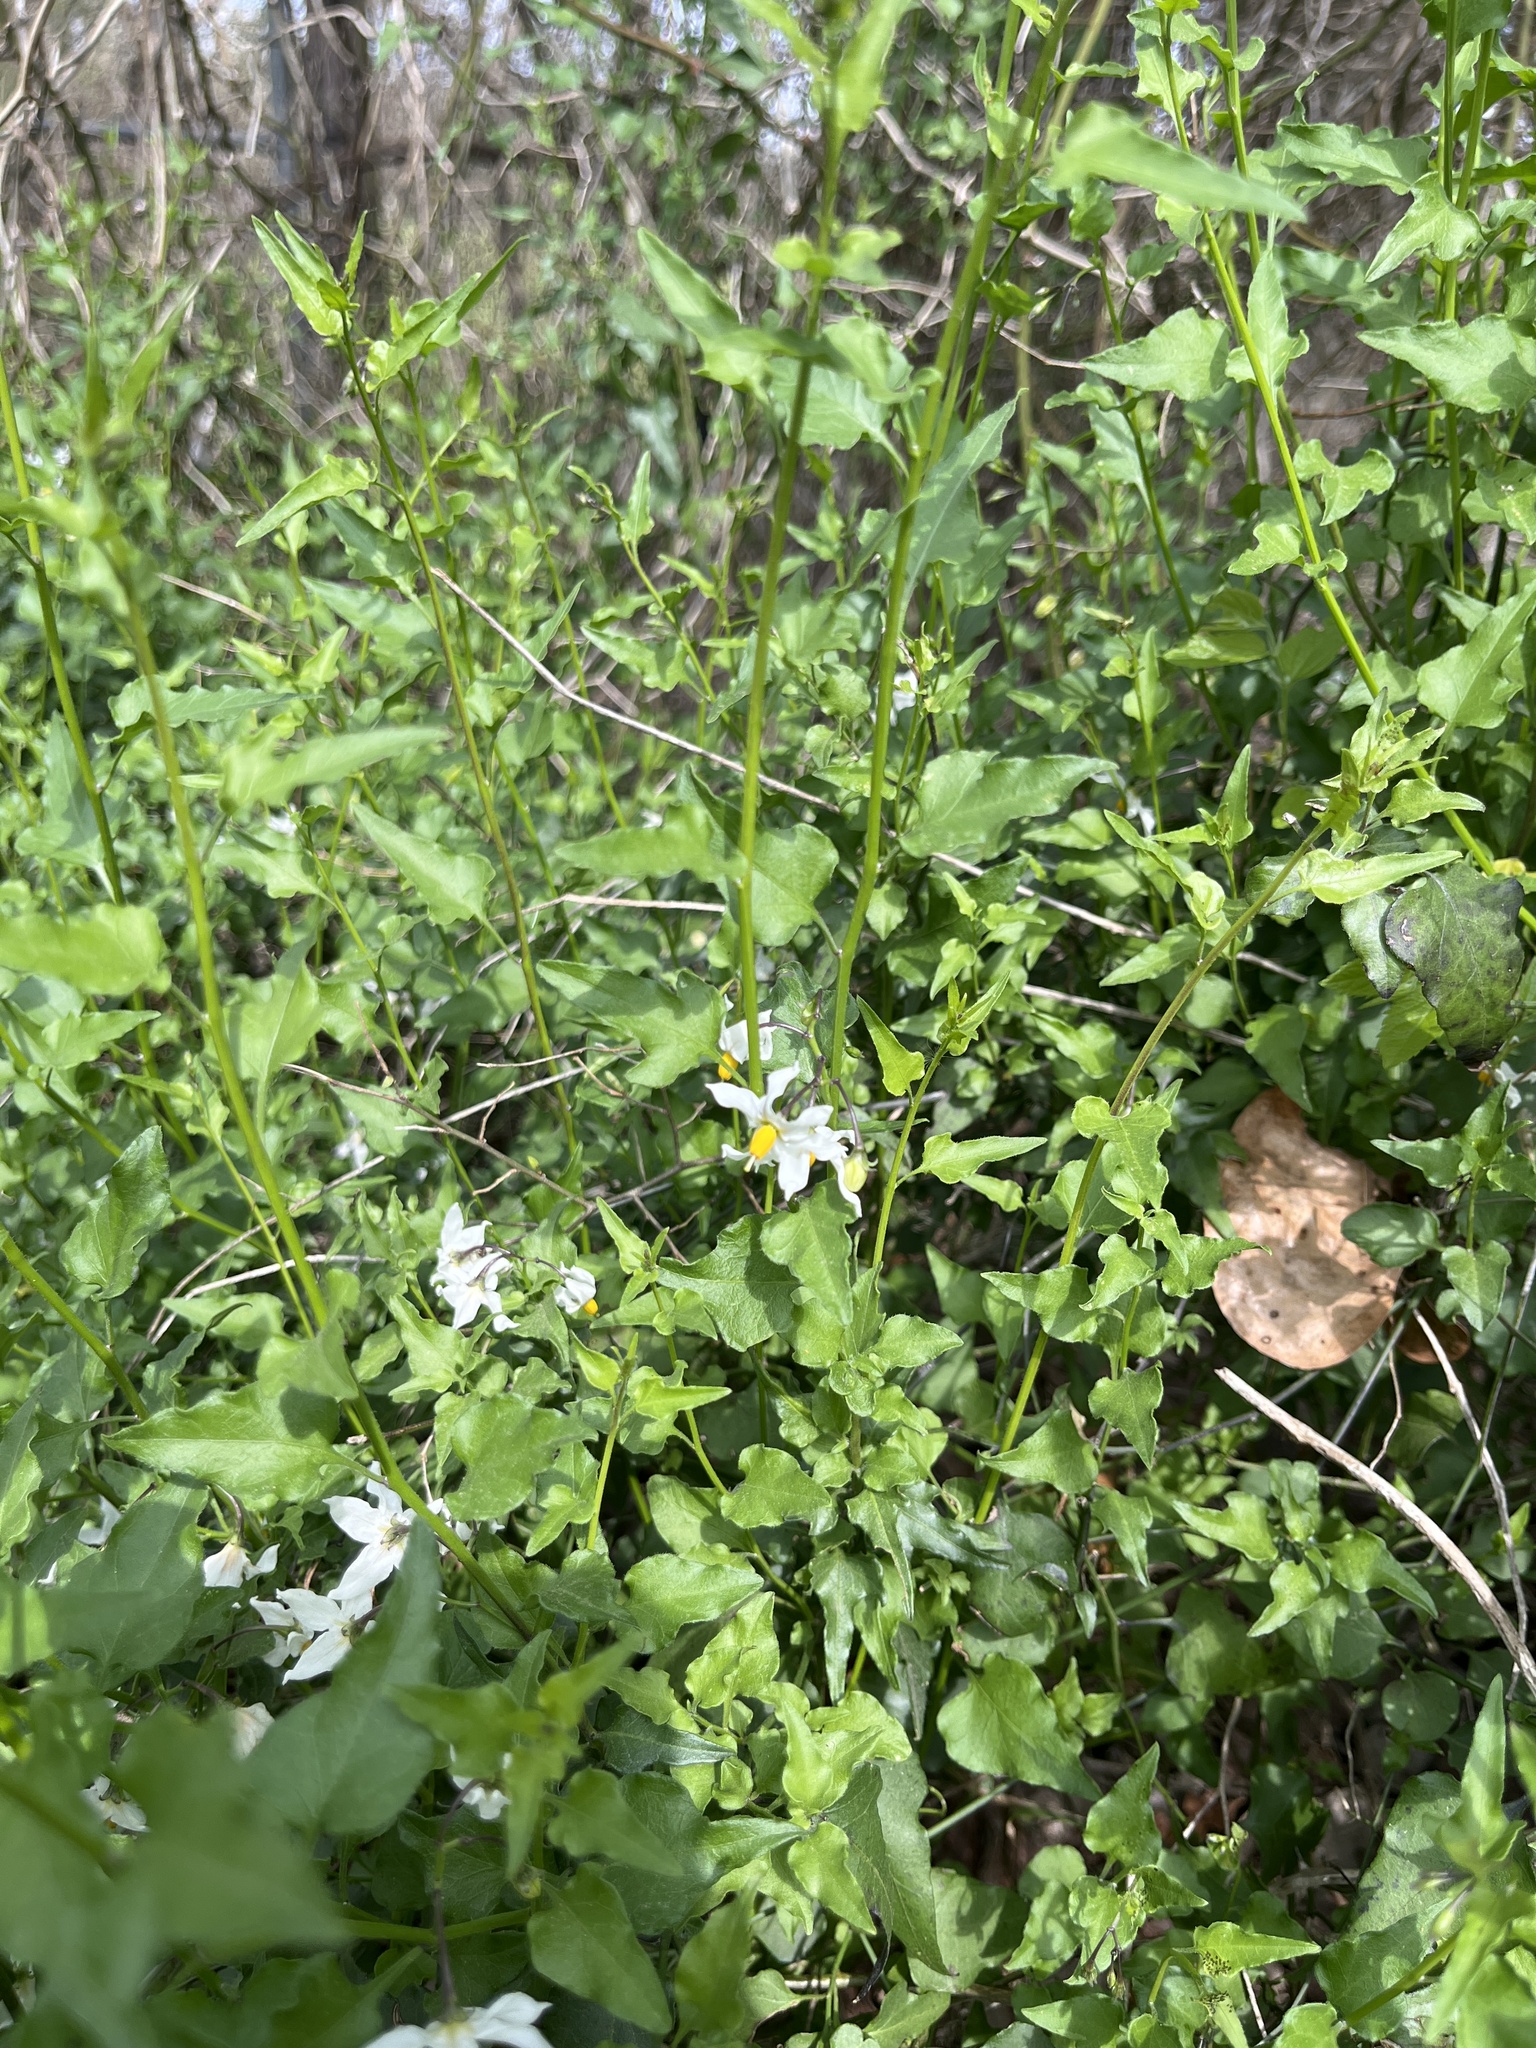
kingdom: Plantae
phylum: Tracheophyta
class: Magnoliopsida
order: Solanales
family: Solanaceae
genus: Solanum
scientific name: Solanum triquetrum
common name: Texas nightshade
